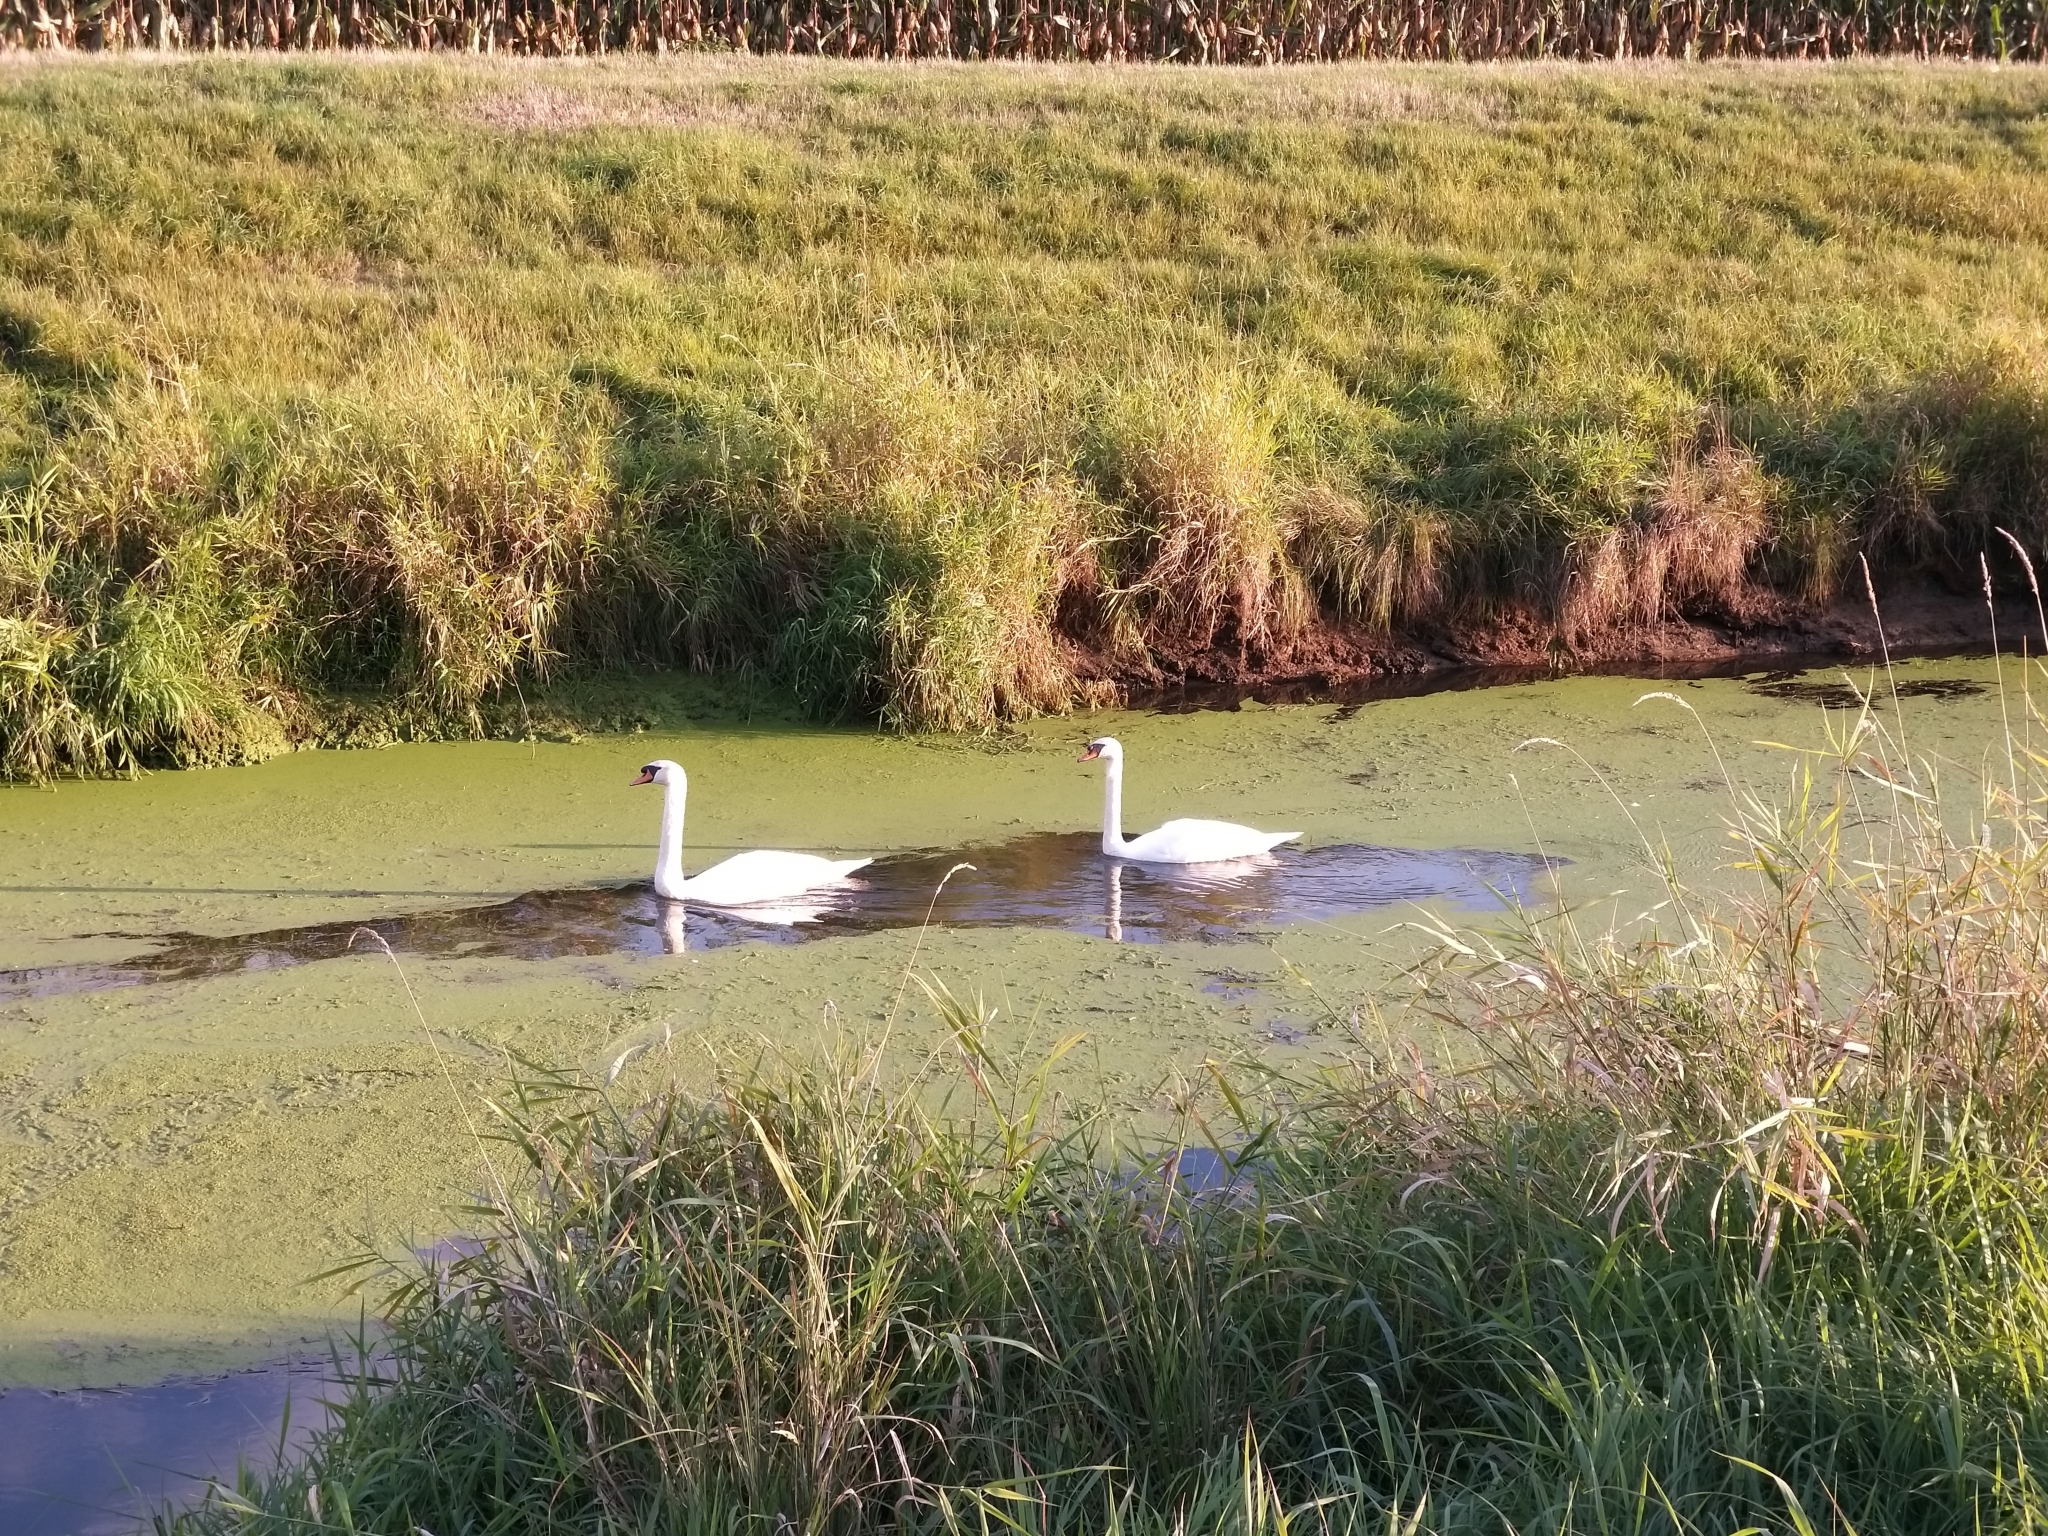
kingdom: Animalia
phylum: Chordata
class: Aves
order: Anseriformes
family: Anatidae
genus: Cygnus
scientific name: Cygnus olor
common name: Mute swan
